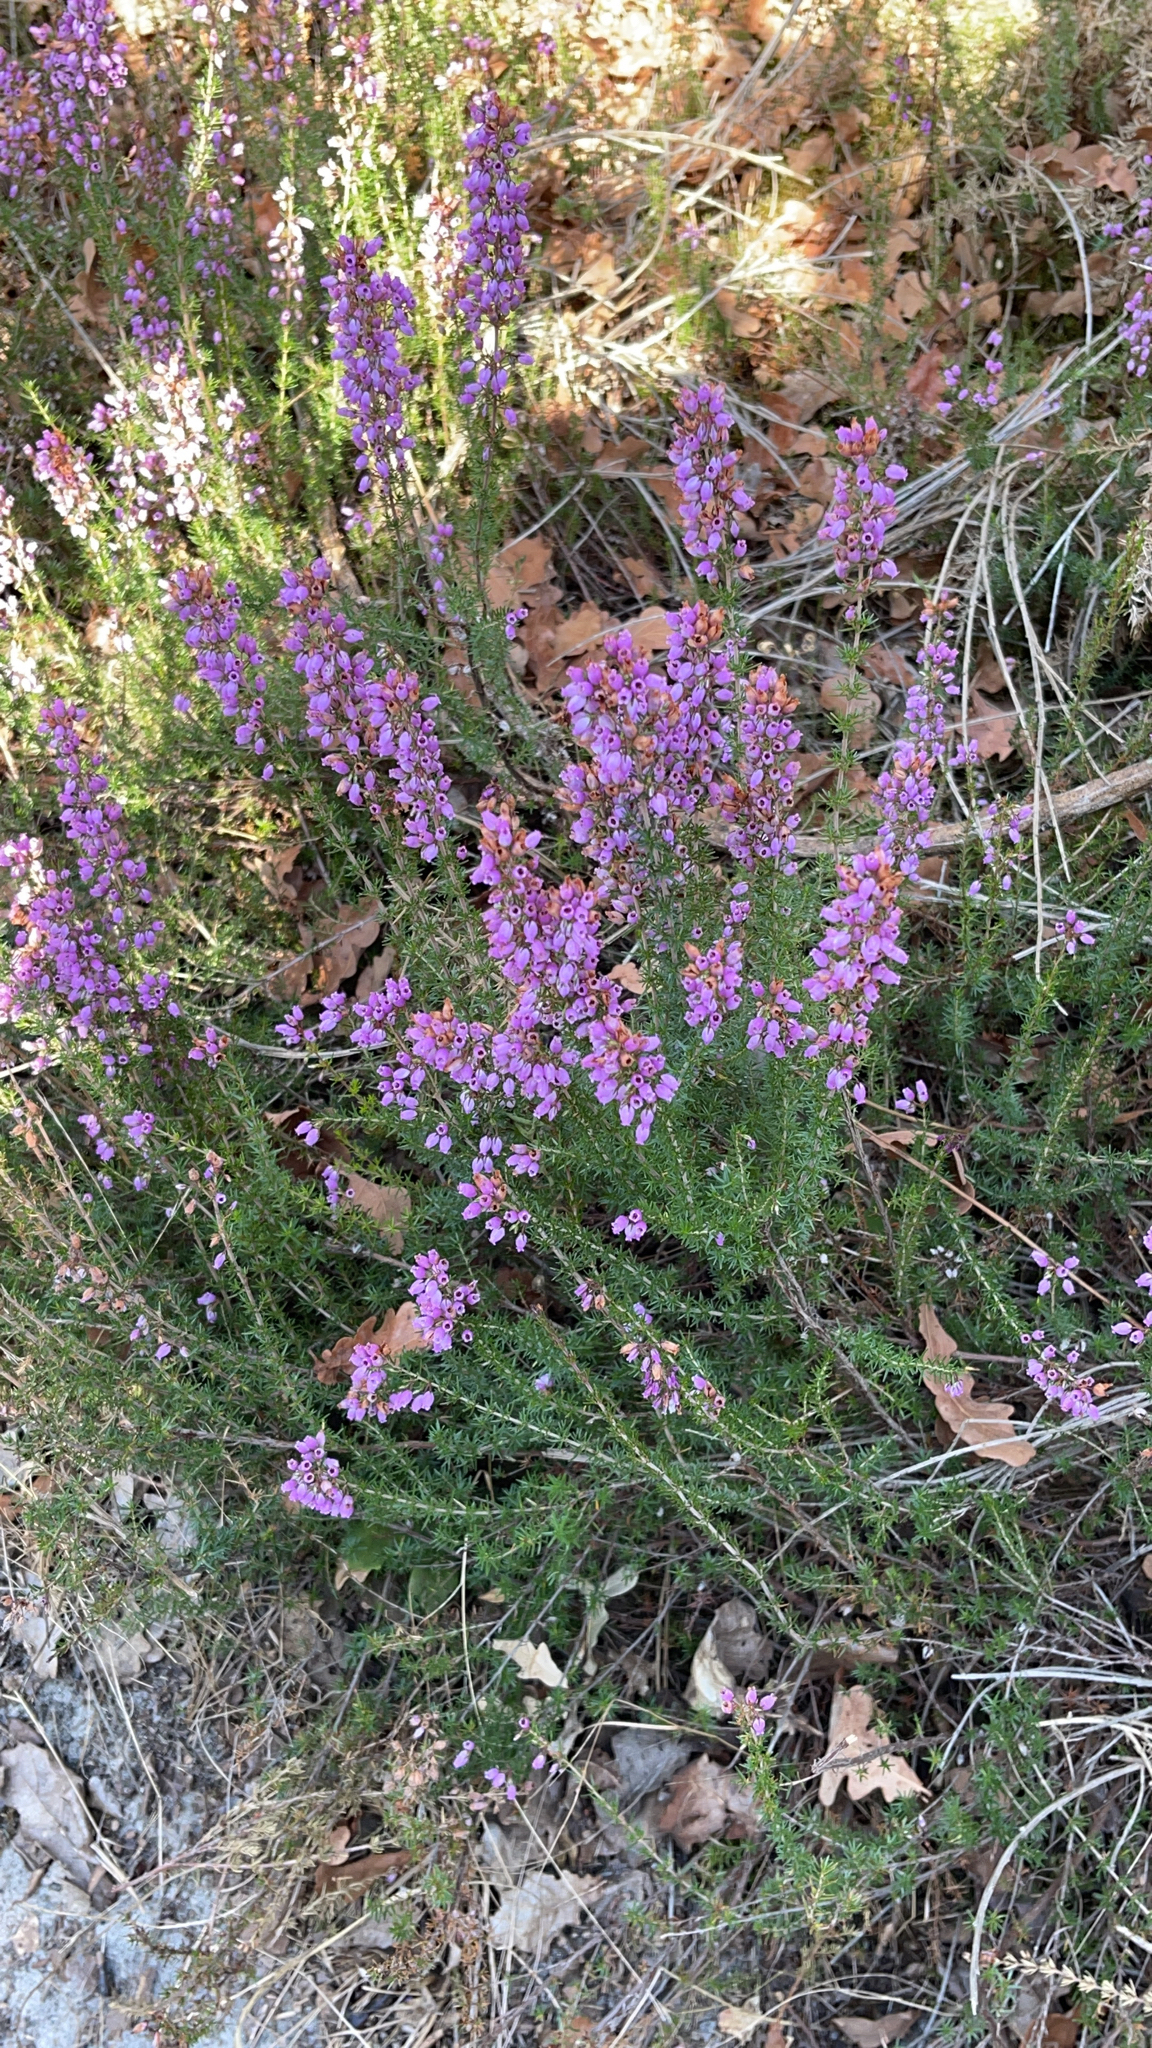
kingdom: Plantae
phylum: Tracheophyta
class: Magnoliopsida
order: Ericales
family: Ericaceae
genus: Erica
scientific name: Erica cinerea
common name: Bell heather
